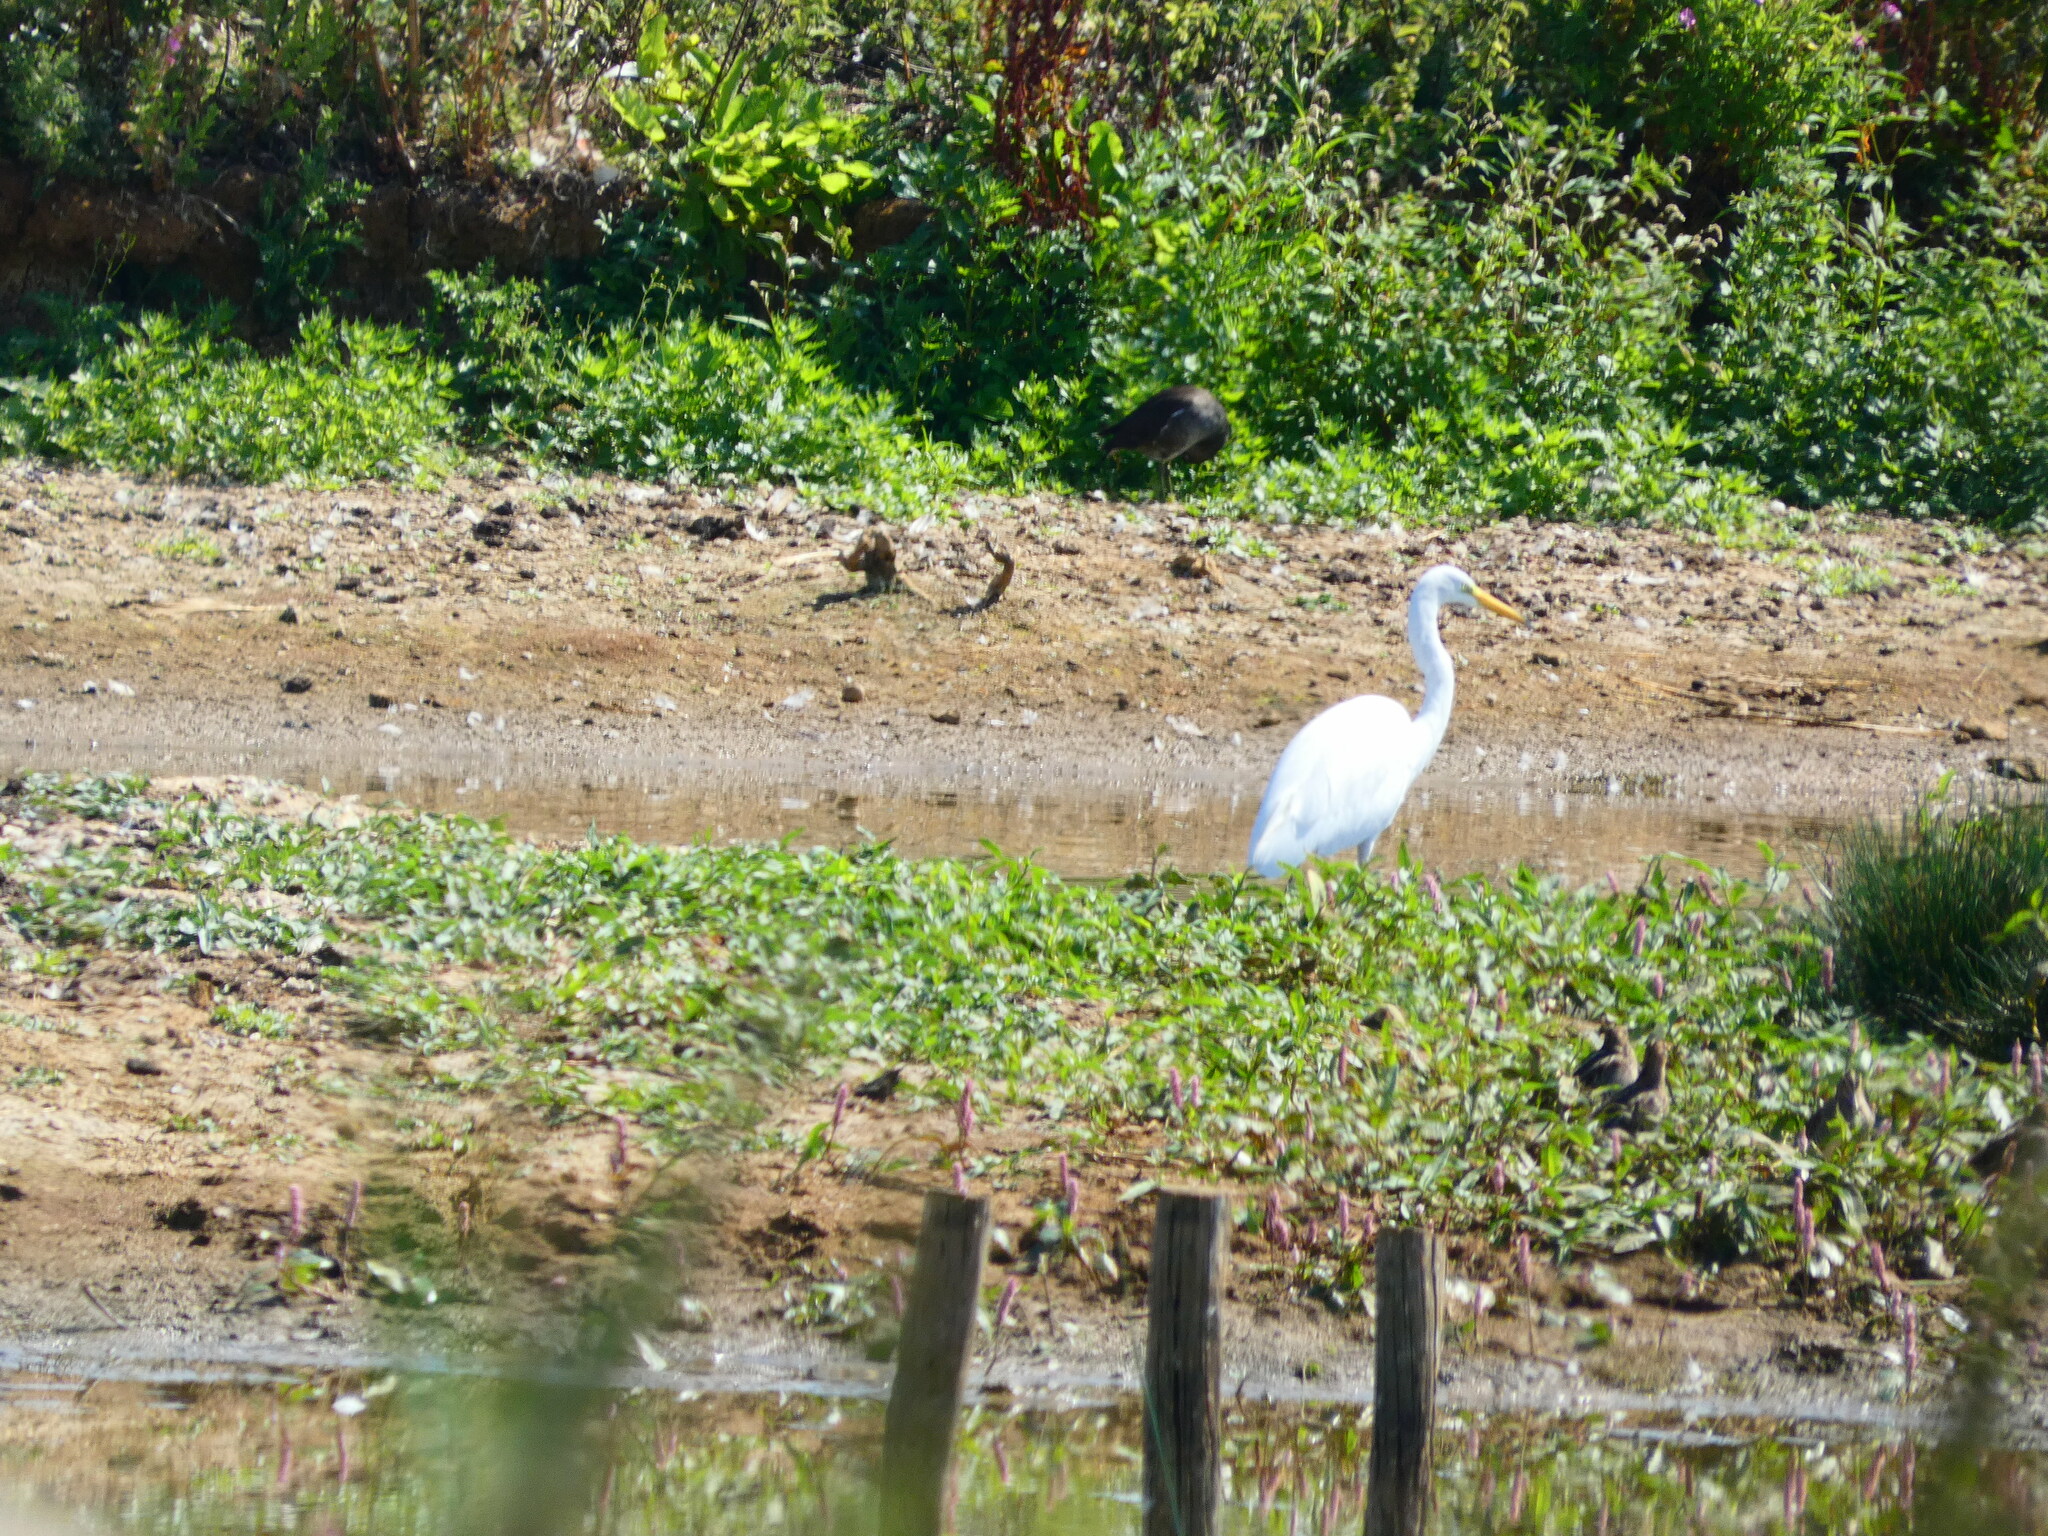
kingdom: Animalia
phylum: Chordata
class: Aves
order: Pelecaniformes
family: Ardeidae
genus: Ardea
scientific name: Ardea alba
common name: Great egret
